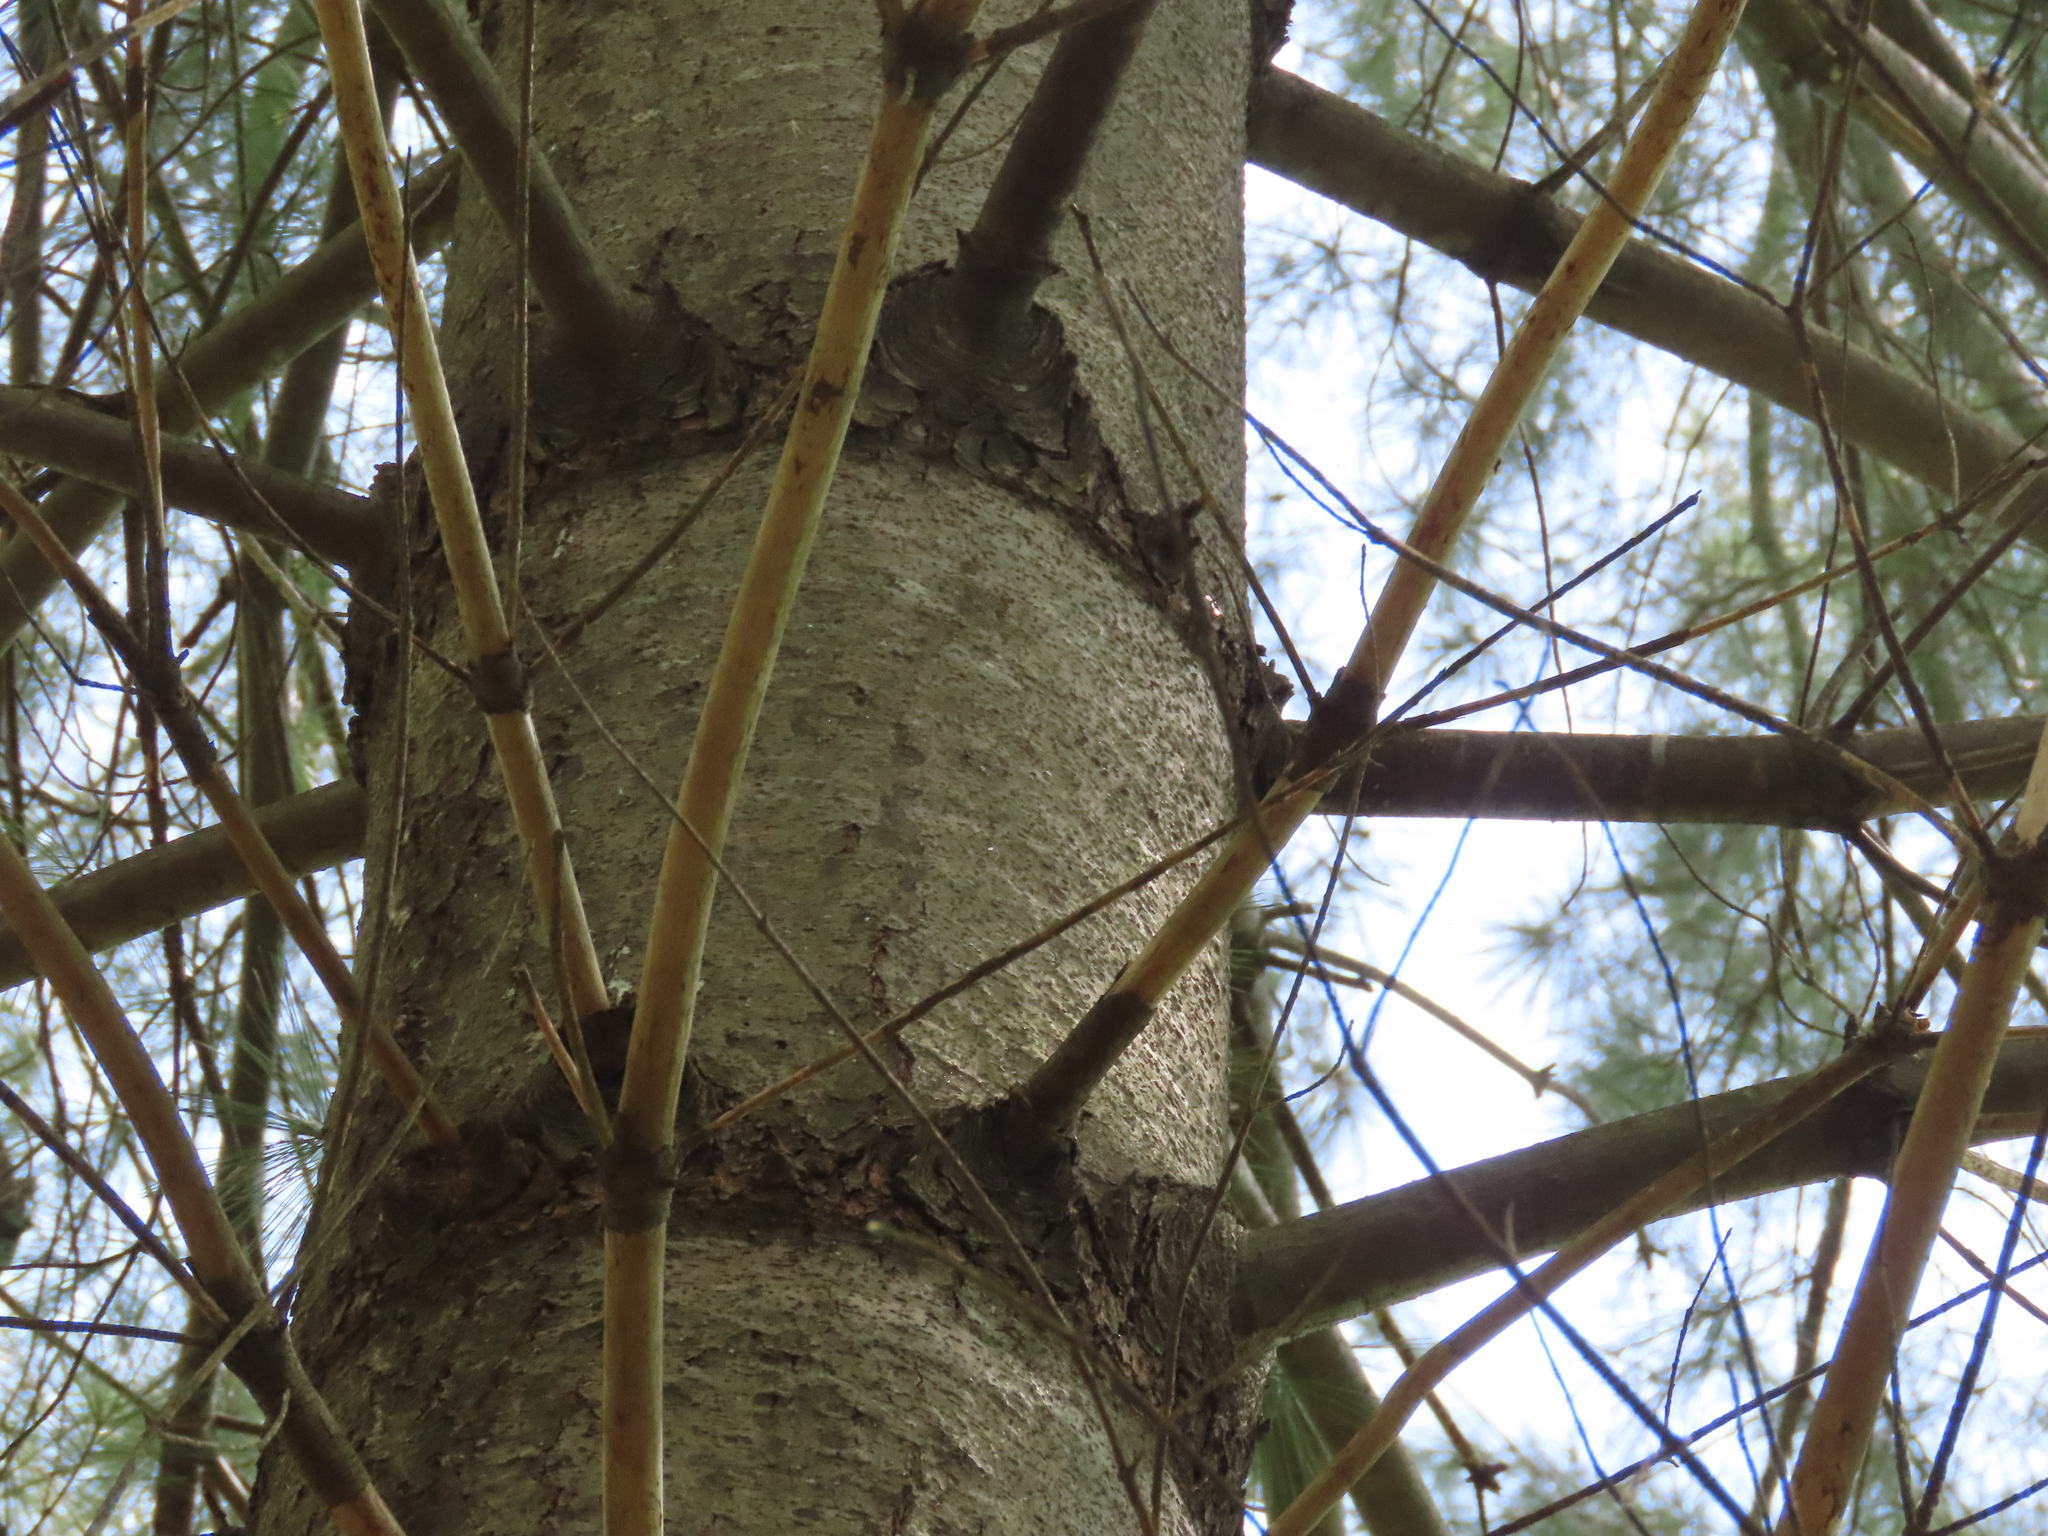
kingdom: Plantae
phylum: Tracheophyta
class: Pinopsida
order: Pinales
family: Pinaceae
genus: Pinus
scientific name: Pinus strobus
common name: Weymouth pine
